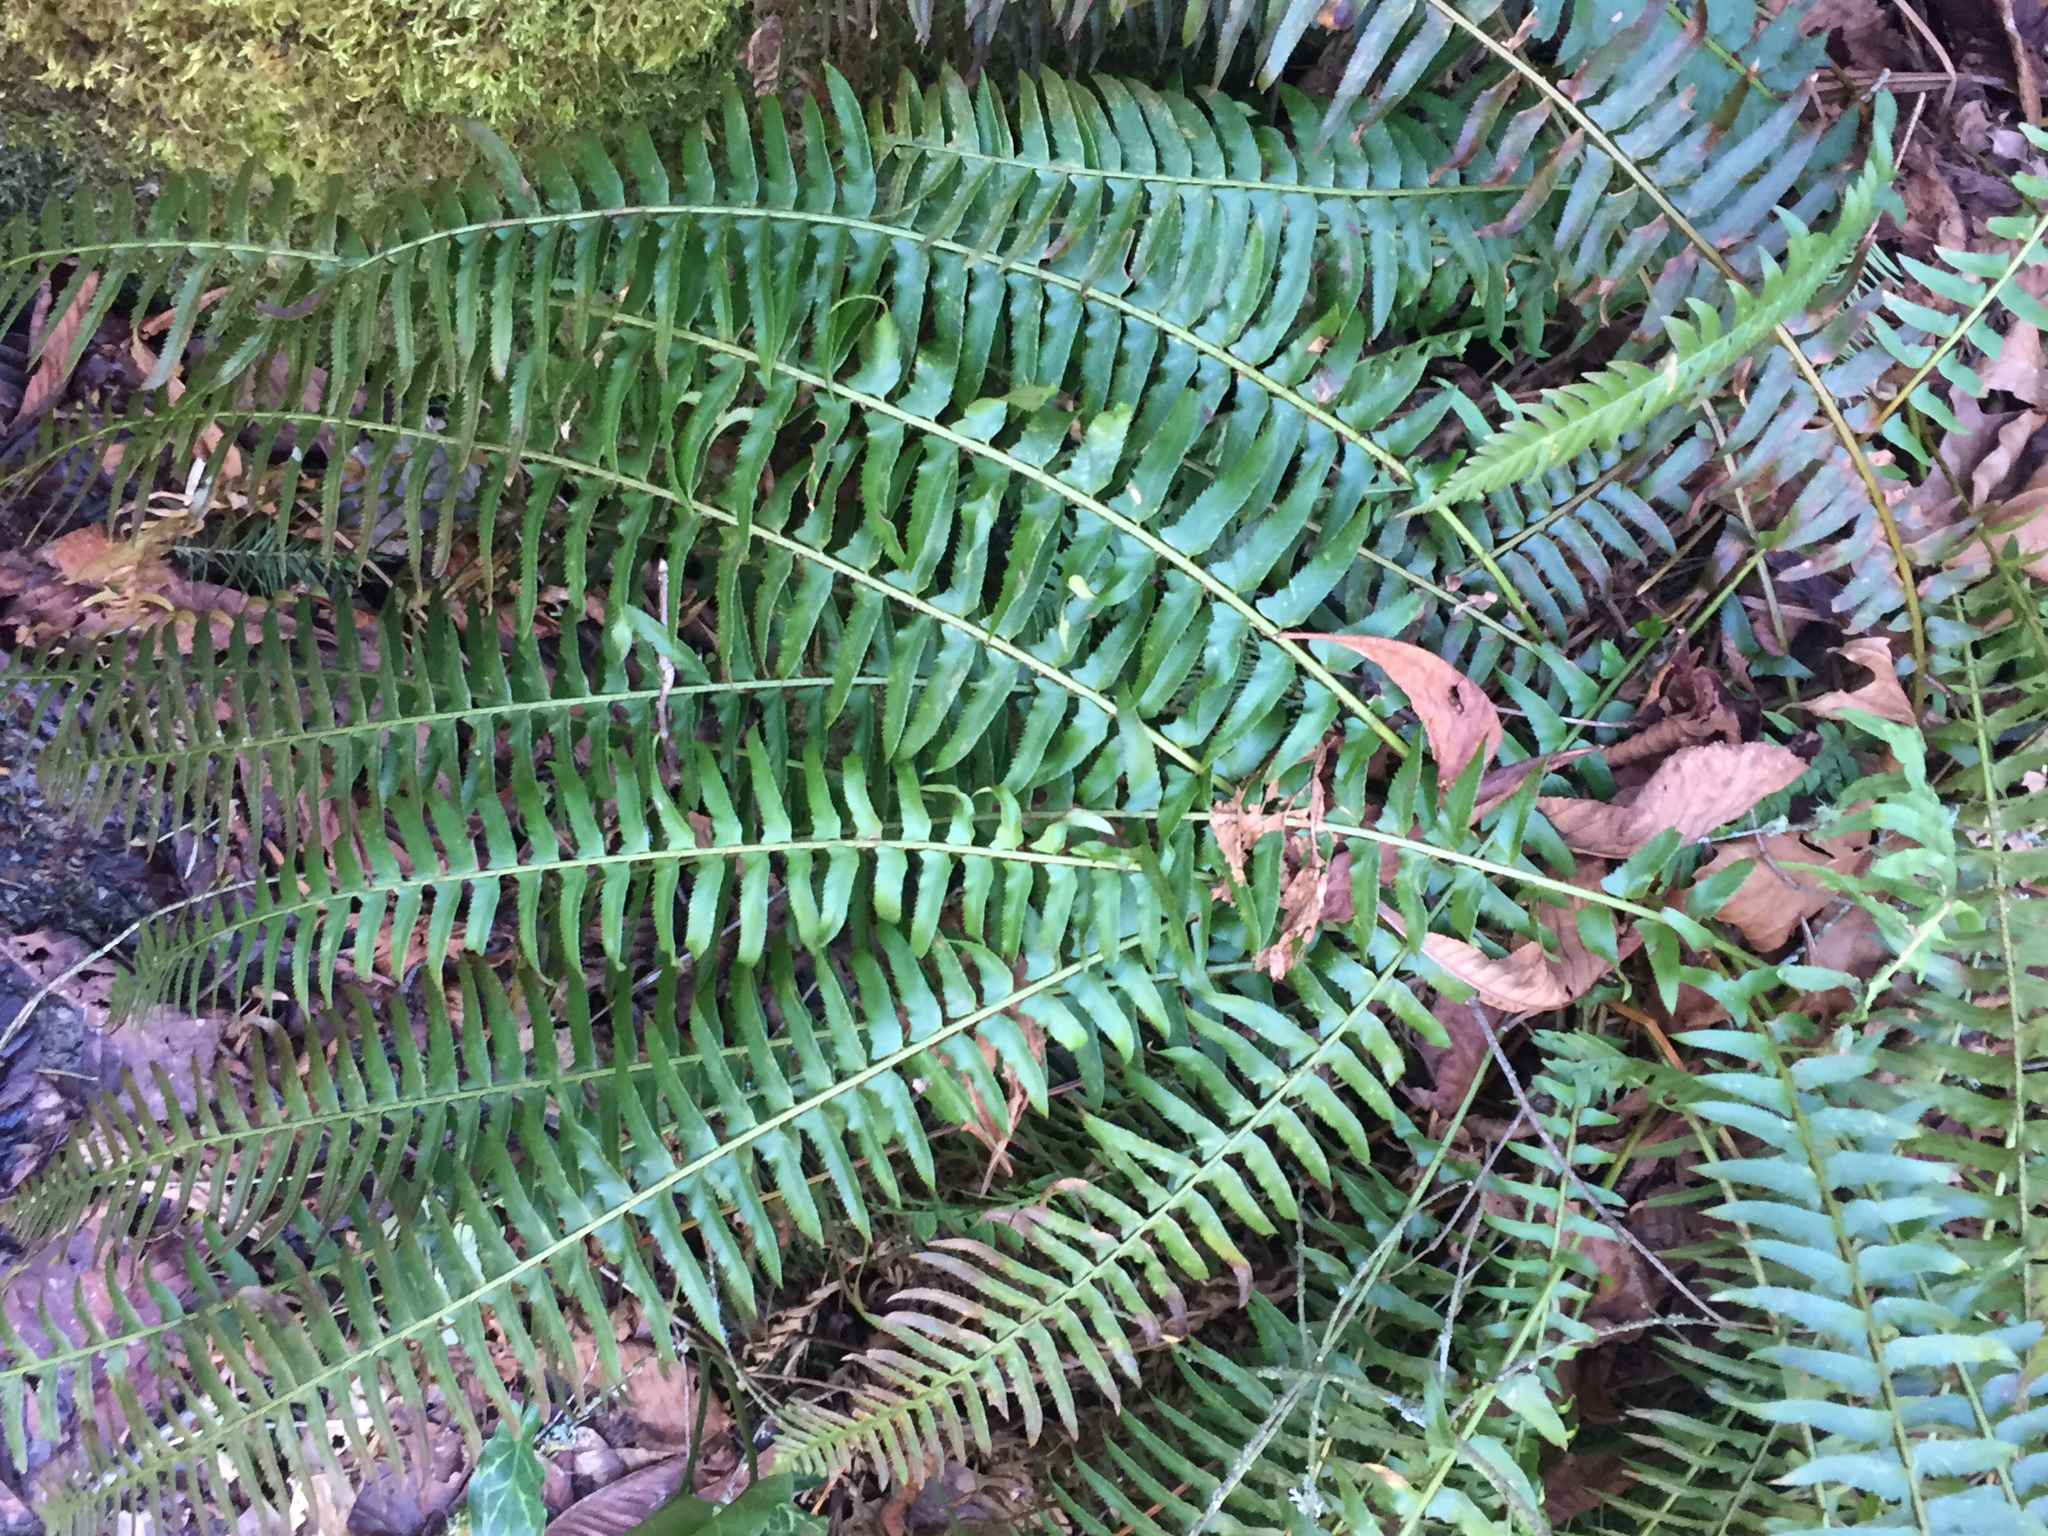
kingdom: Plantae
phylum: Tracheophyta
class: Polypodiopsida
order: Polypodiales
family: Dryopteridaceae
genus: Polystichum
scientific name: Polystichum munitum
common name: Western sword-fern
